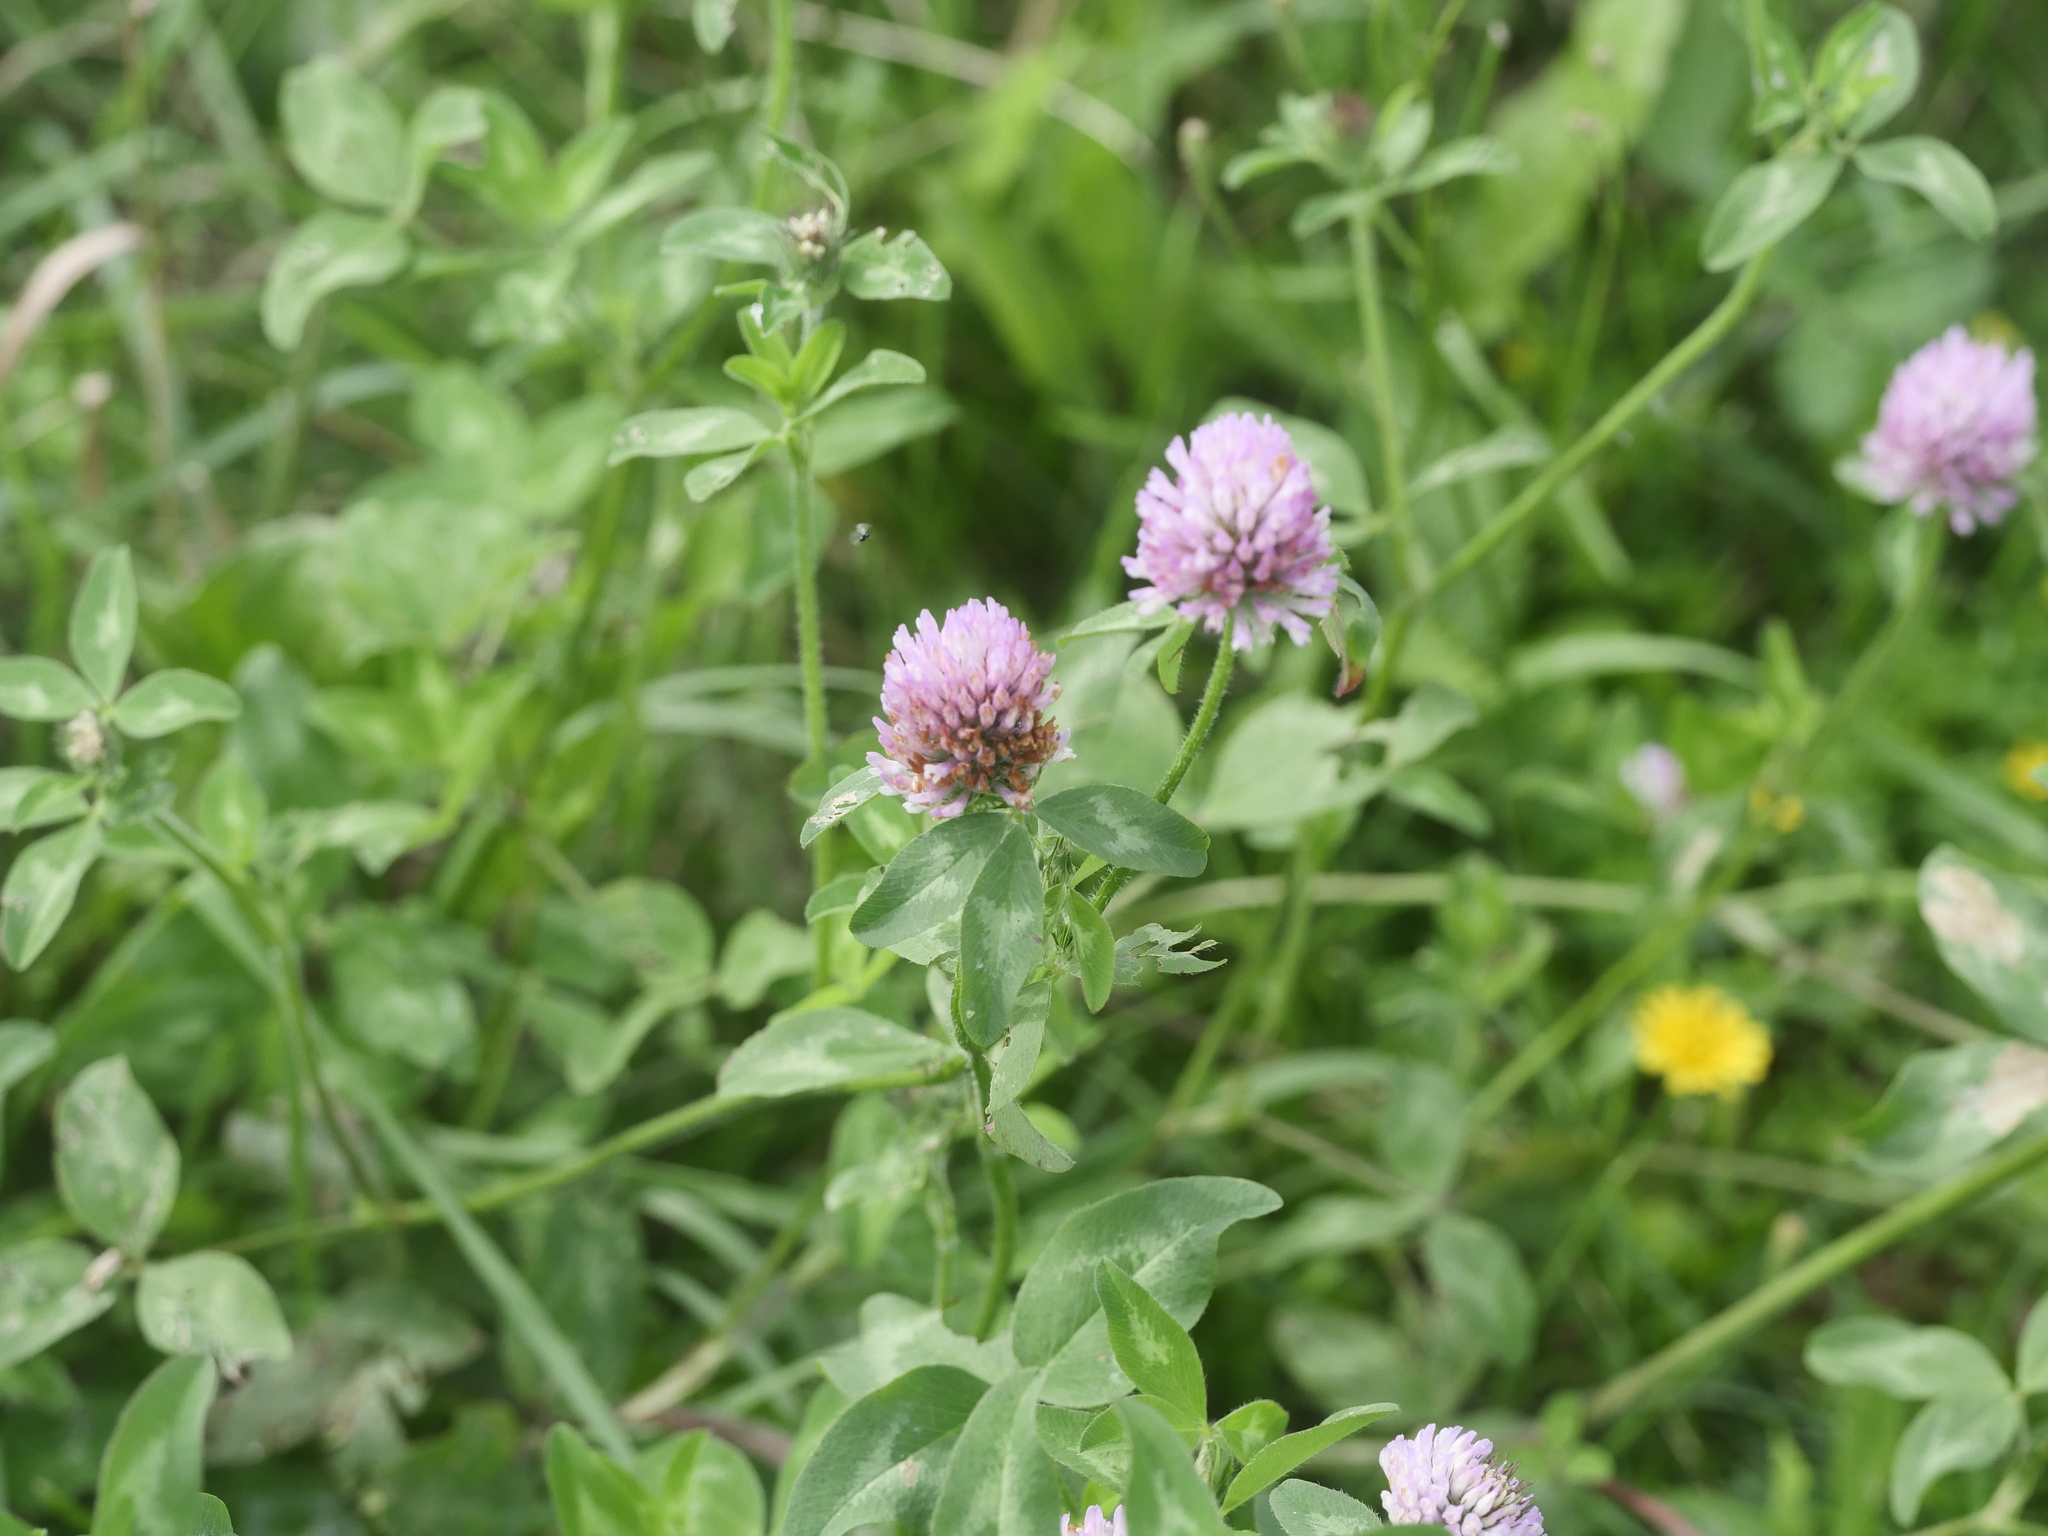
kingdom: Plantae
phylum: Tracheophyta
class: Magnoliopsida
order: Fabales
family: Fabaceae
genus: Trifolium
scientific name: Trifolium pratense
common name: Red clover
